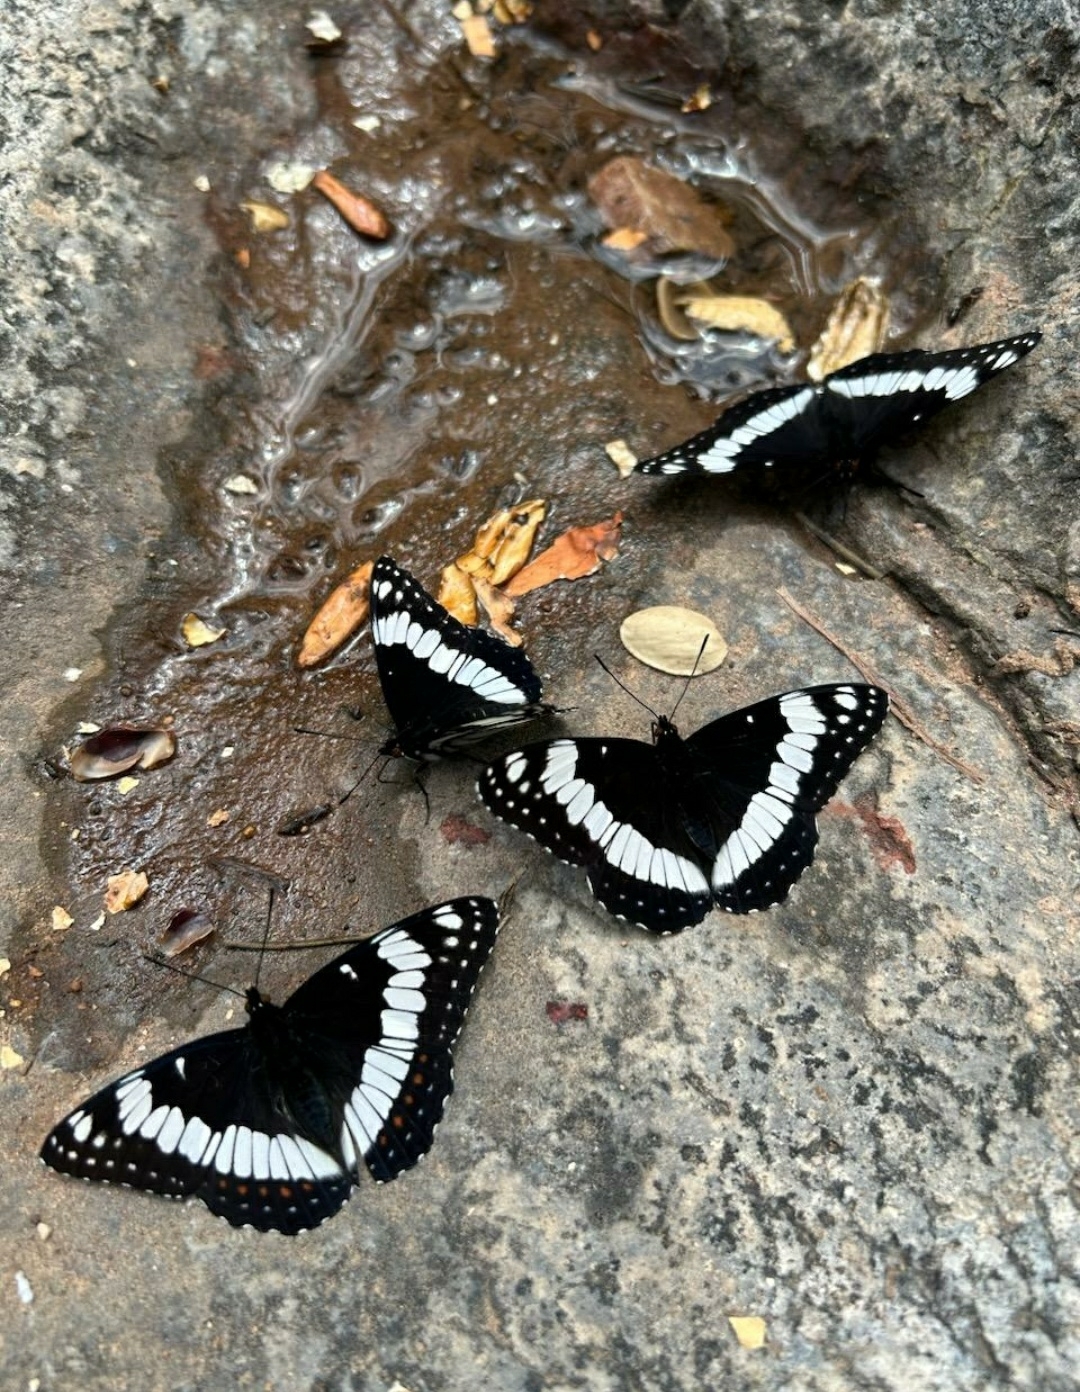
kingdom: Animalia
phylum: Arthropoda
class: Insecta
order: Lepidoptera
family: Nymphalidae
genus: Limenitis
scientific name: Limenitis weidemeyerii
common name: Weidemeyer's admiral
